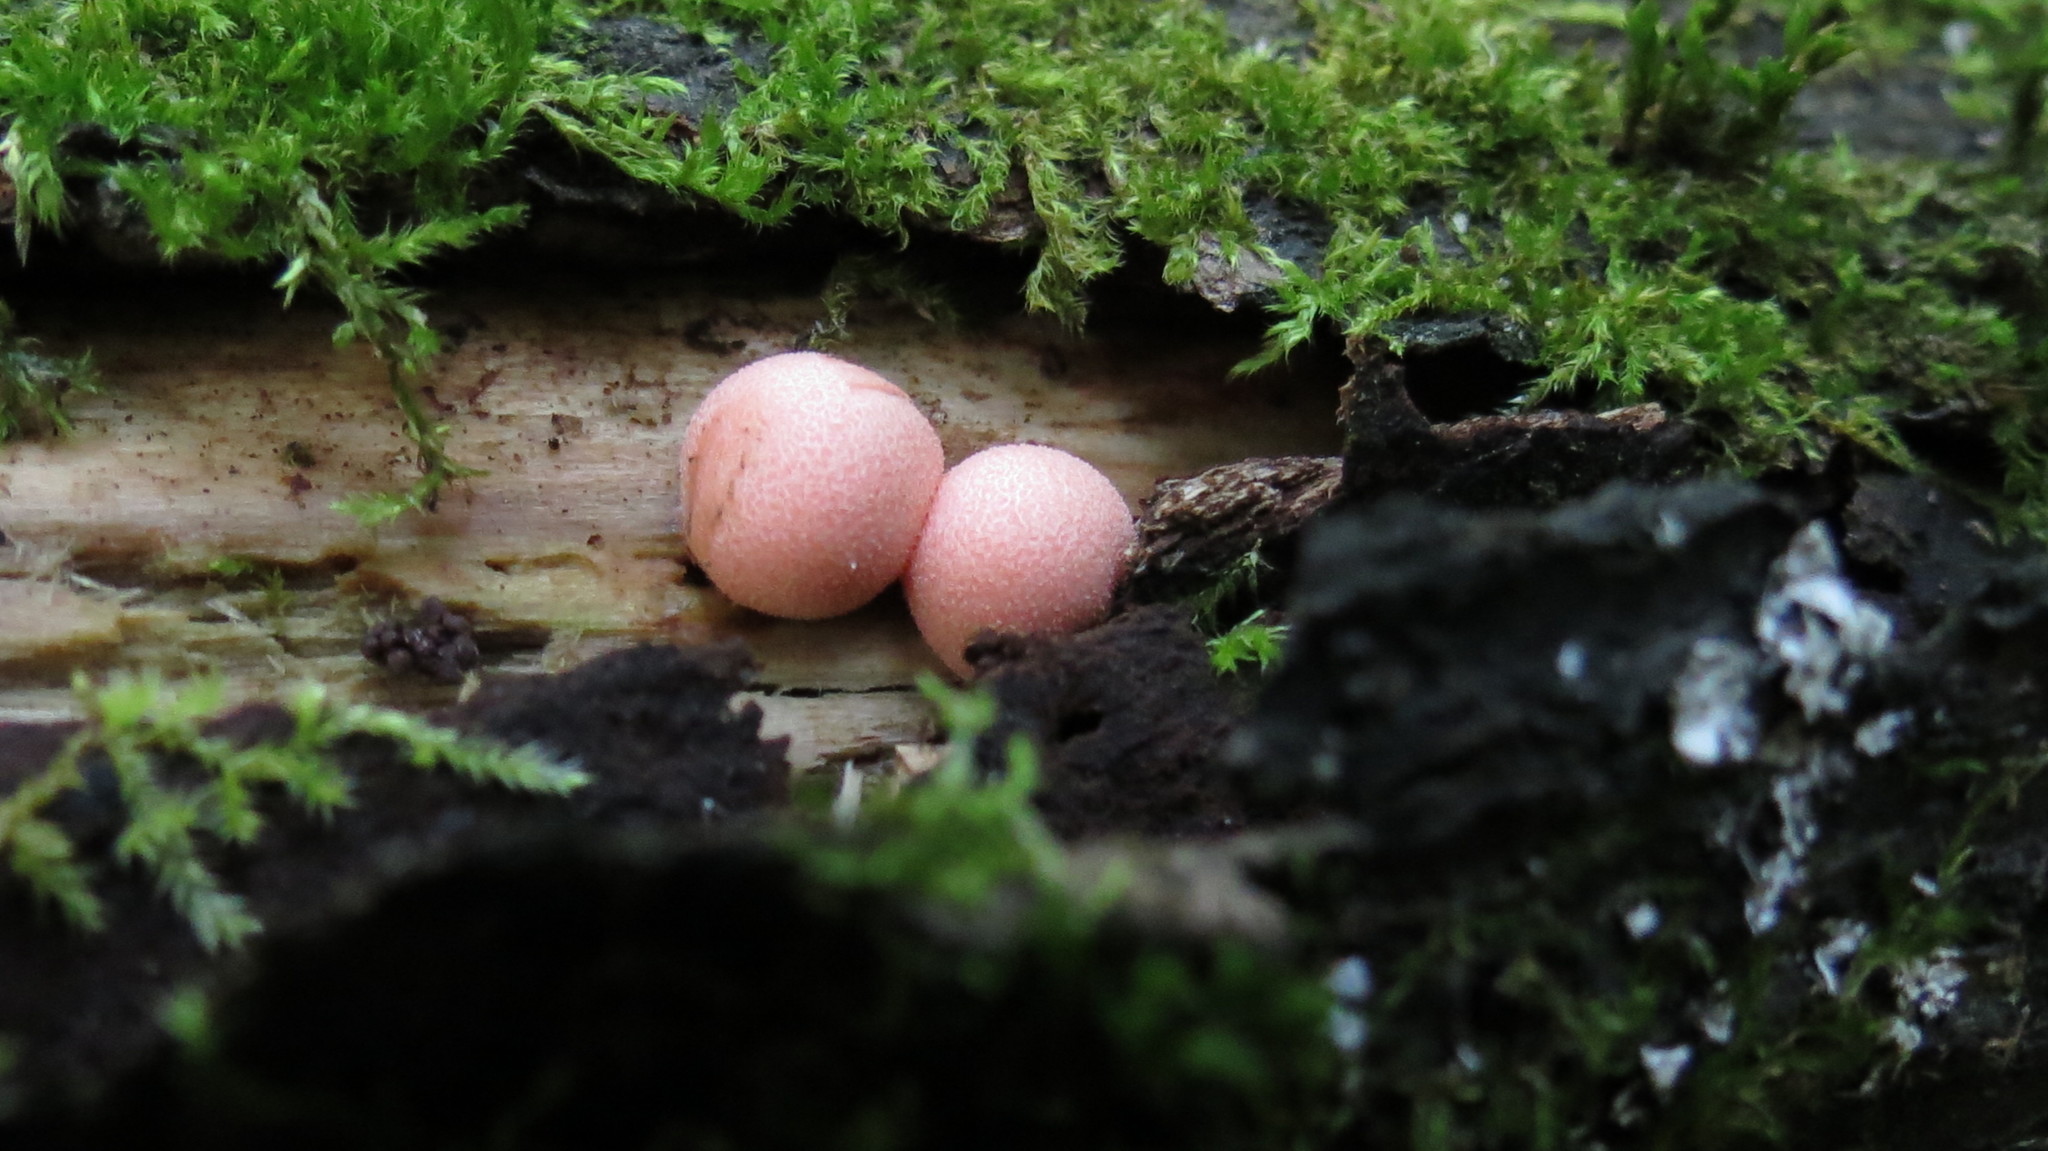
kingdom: Protozoa
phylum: Mycetozoa
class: Myxomycetes
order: Cribrariales
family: Tubiferaceae
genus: Lycogala
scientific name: Lycogala epidendrum
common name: Wolf's milk
